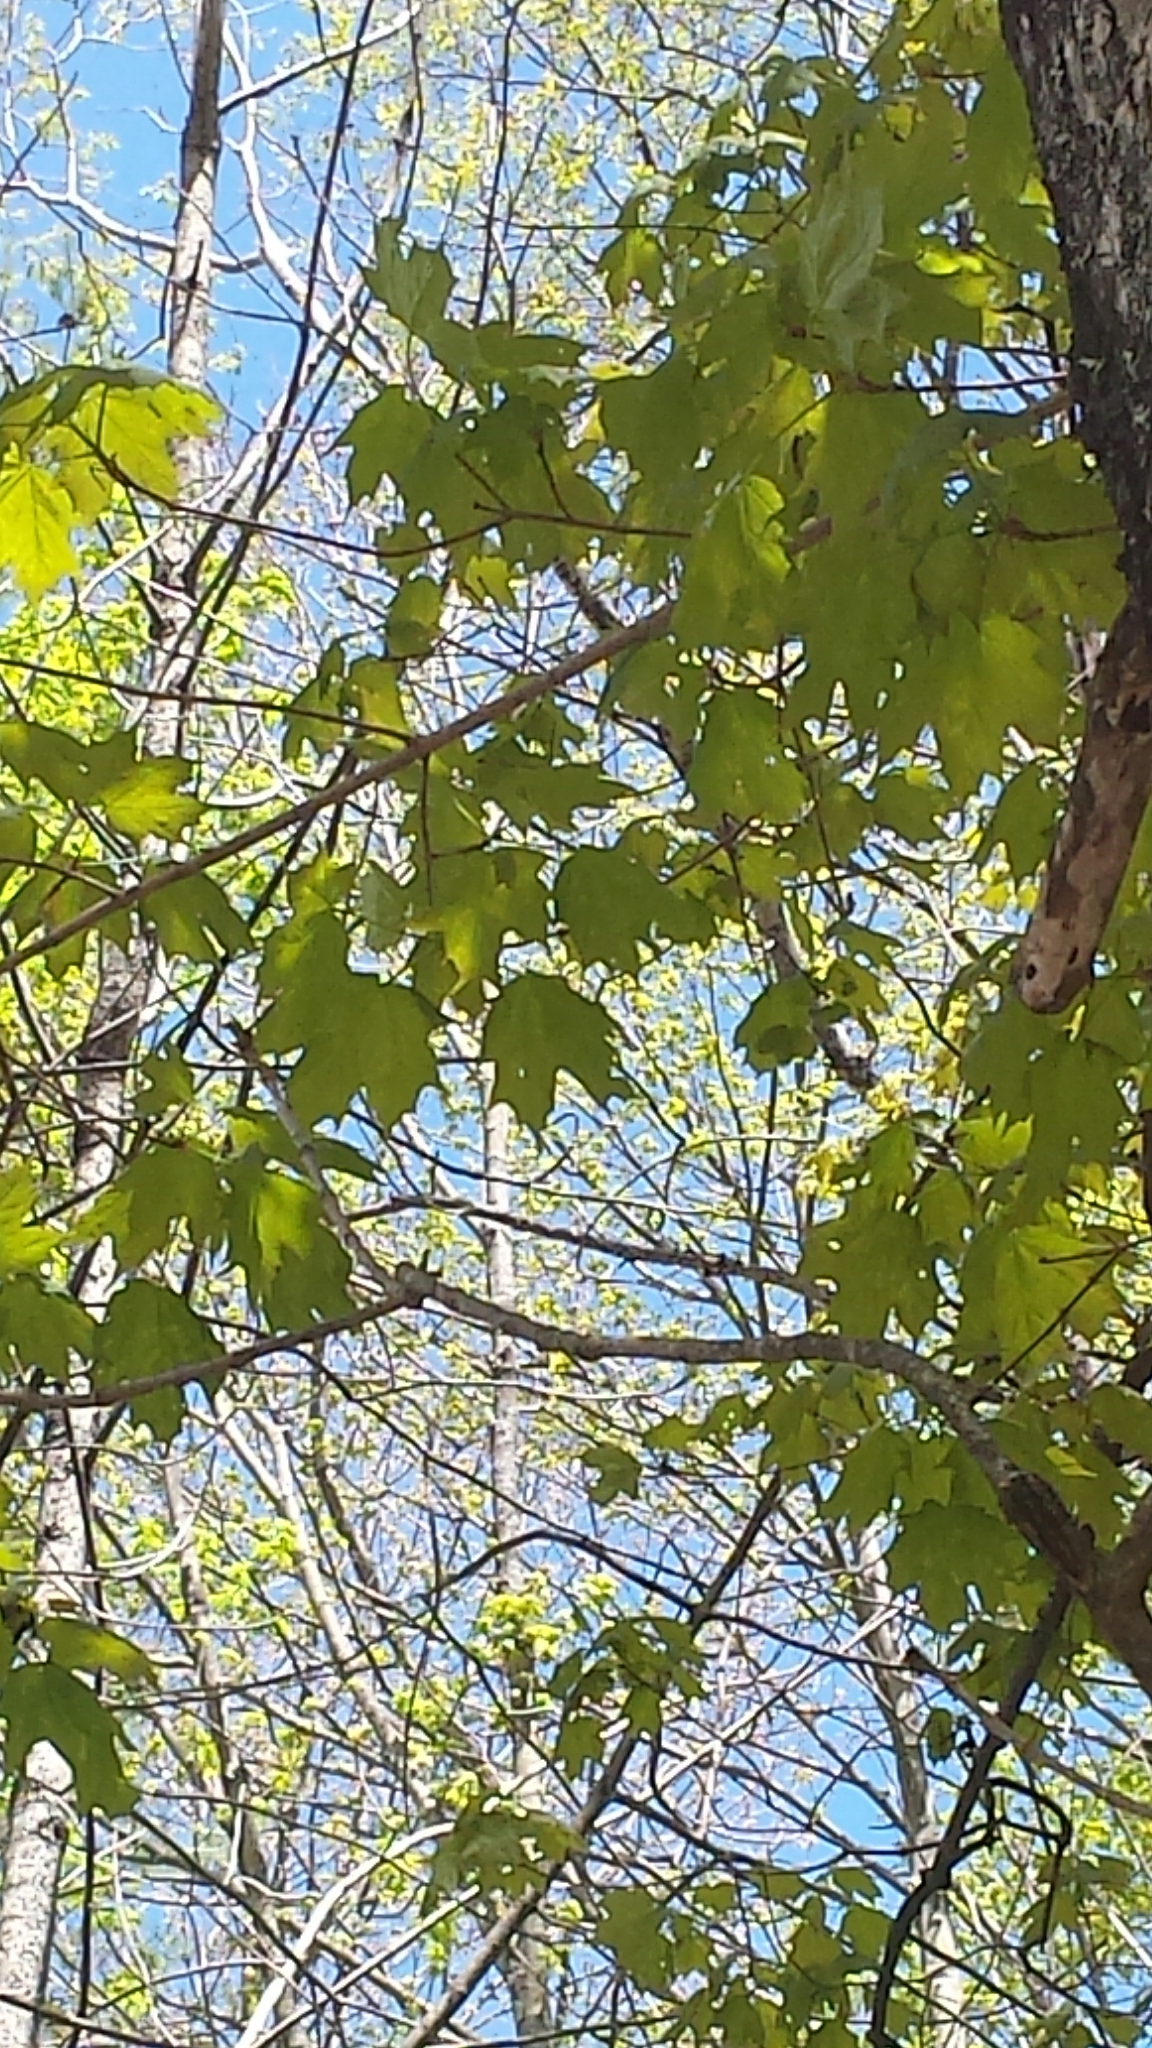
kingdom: Plantae
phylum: Tracheophyta
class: Magnoliopsida
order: Sapindales
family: Sapindaceae
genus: Acer
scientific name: Acer saccharum
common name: Sugar maple
